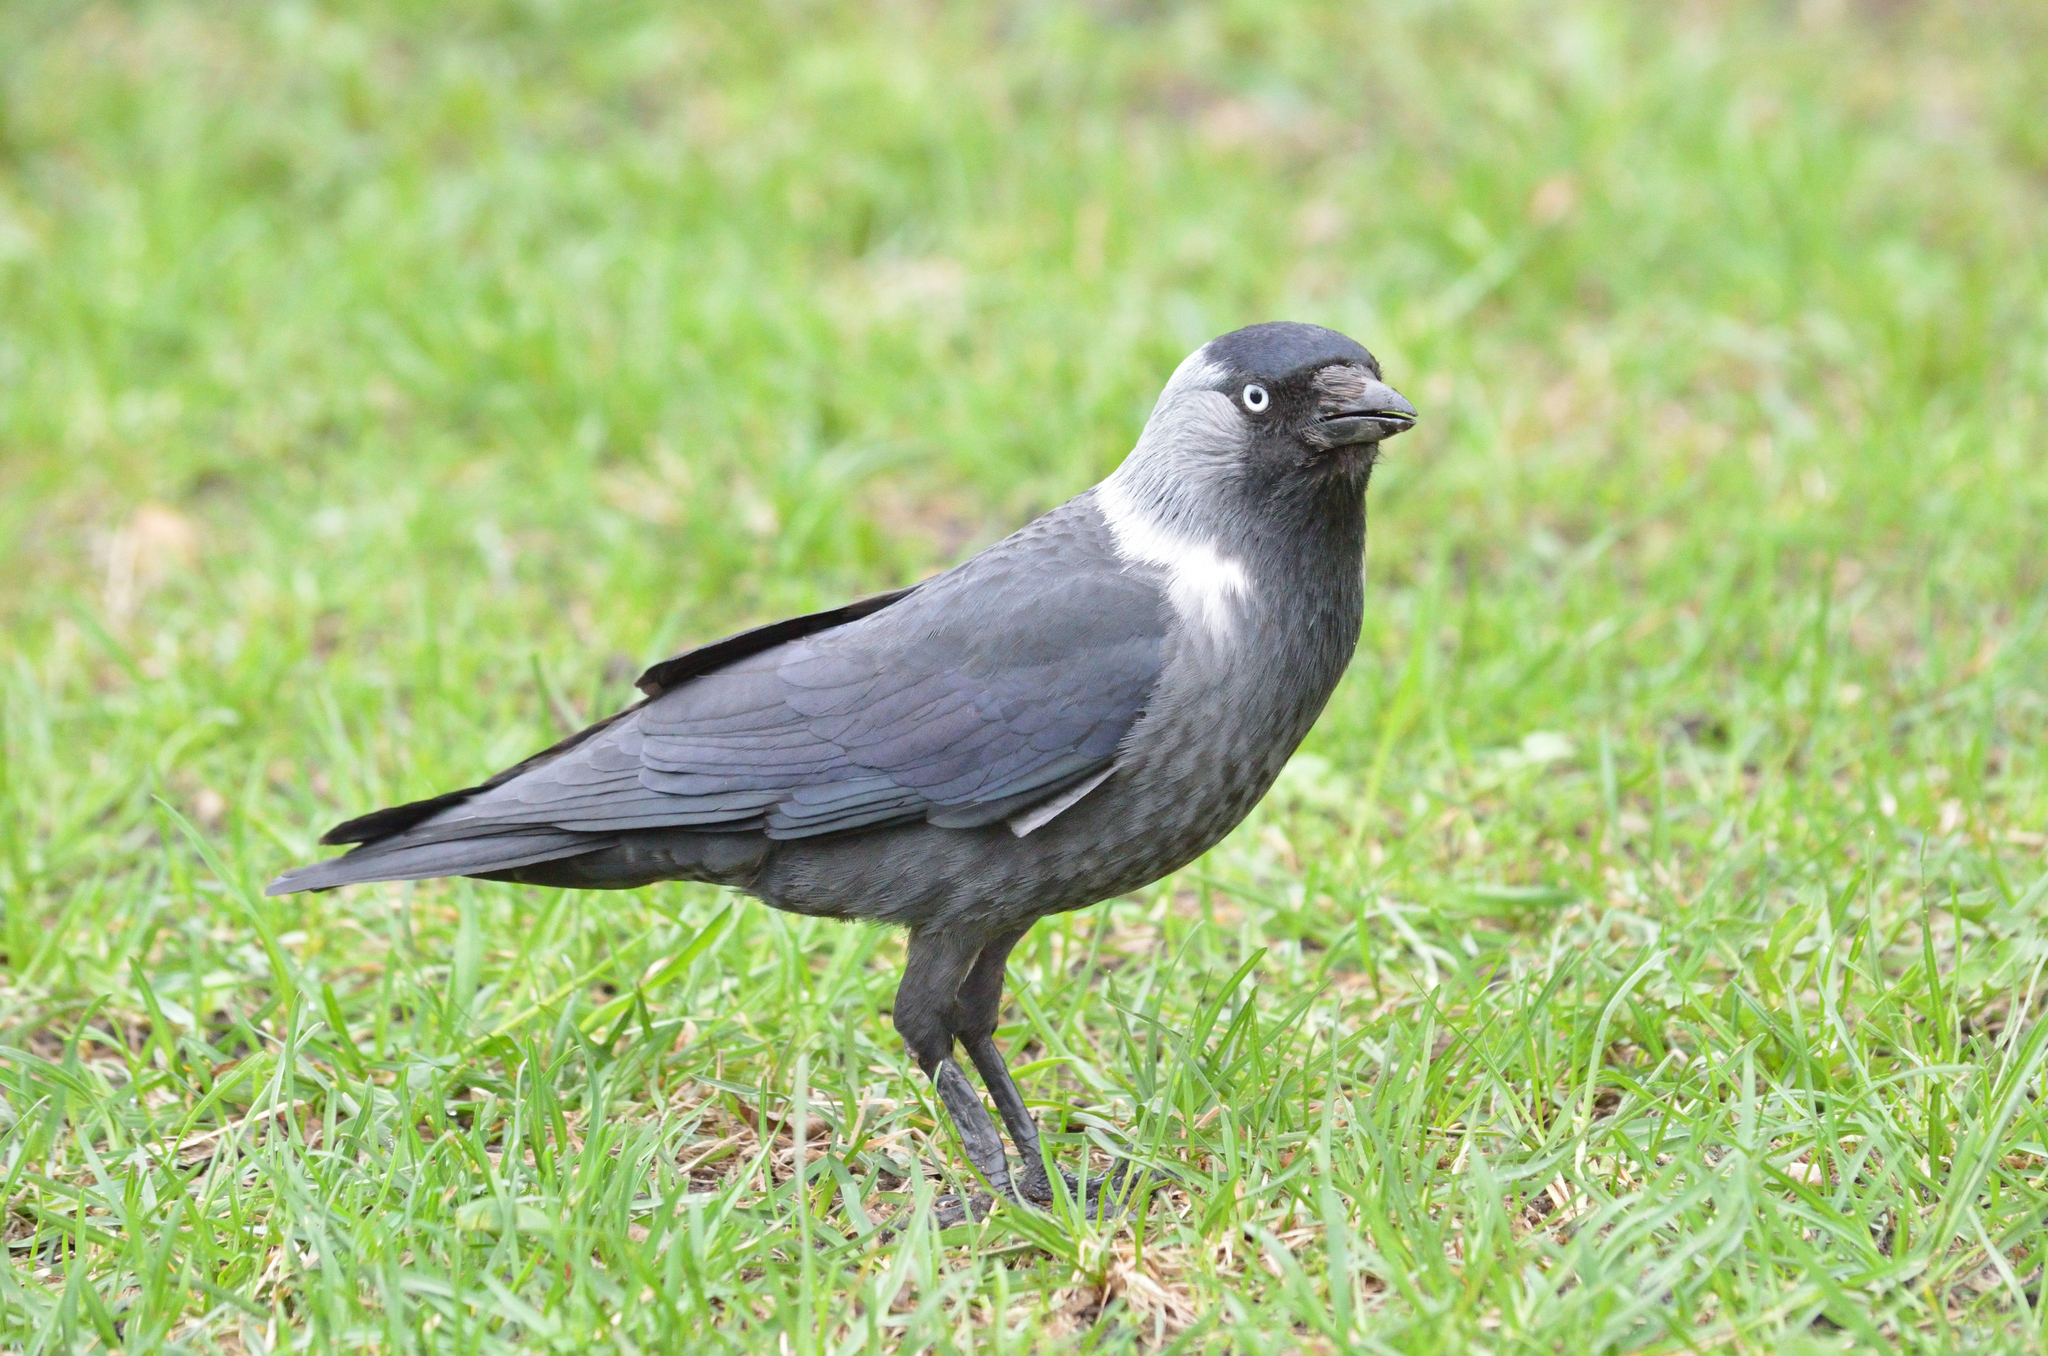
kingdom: Animalia
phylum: Chordata
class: Aves
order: Passeriformes
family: Corvidae
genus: Coloeus
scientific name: Coloeus monedula
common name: Western jackdaw
